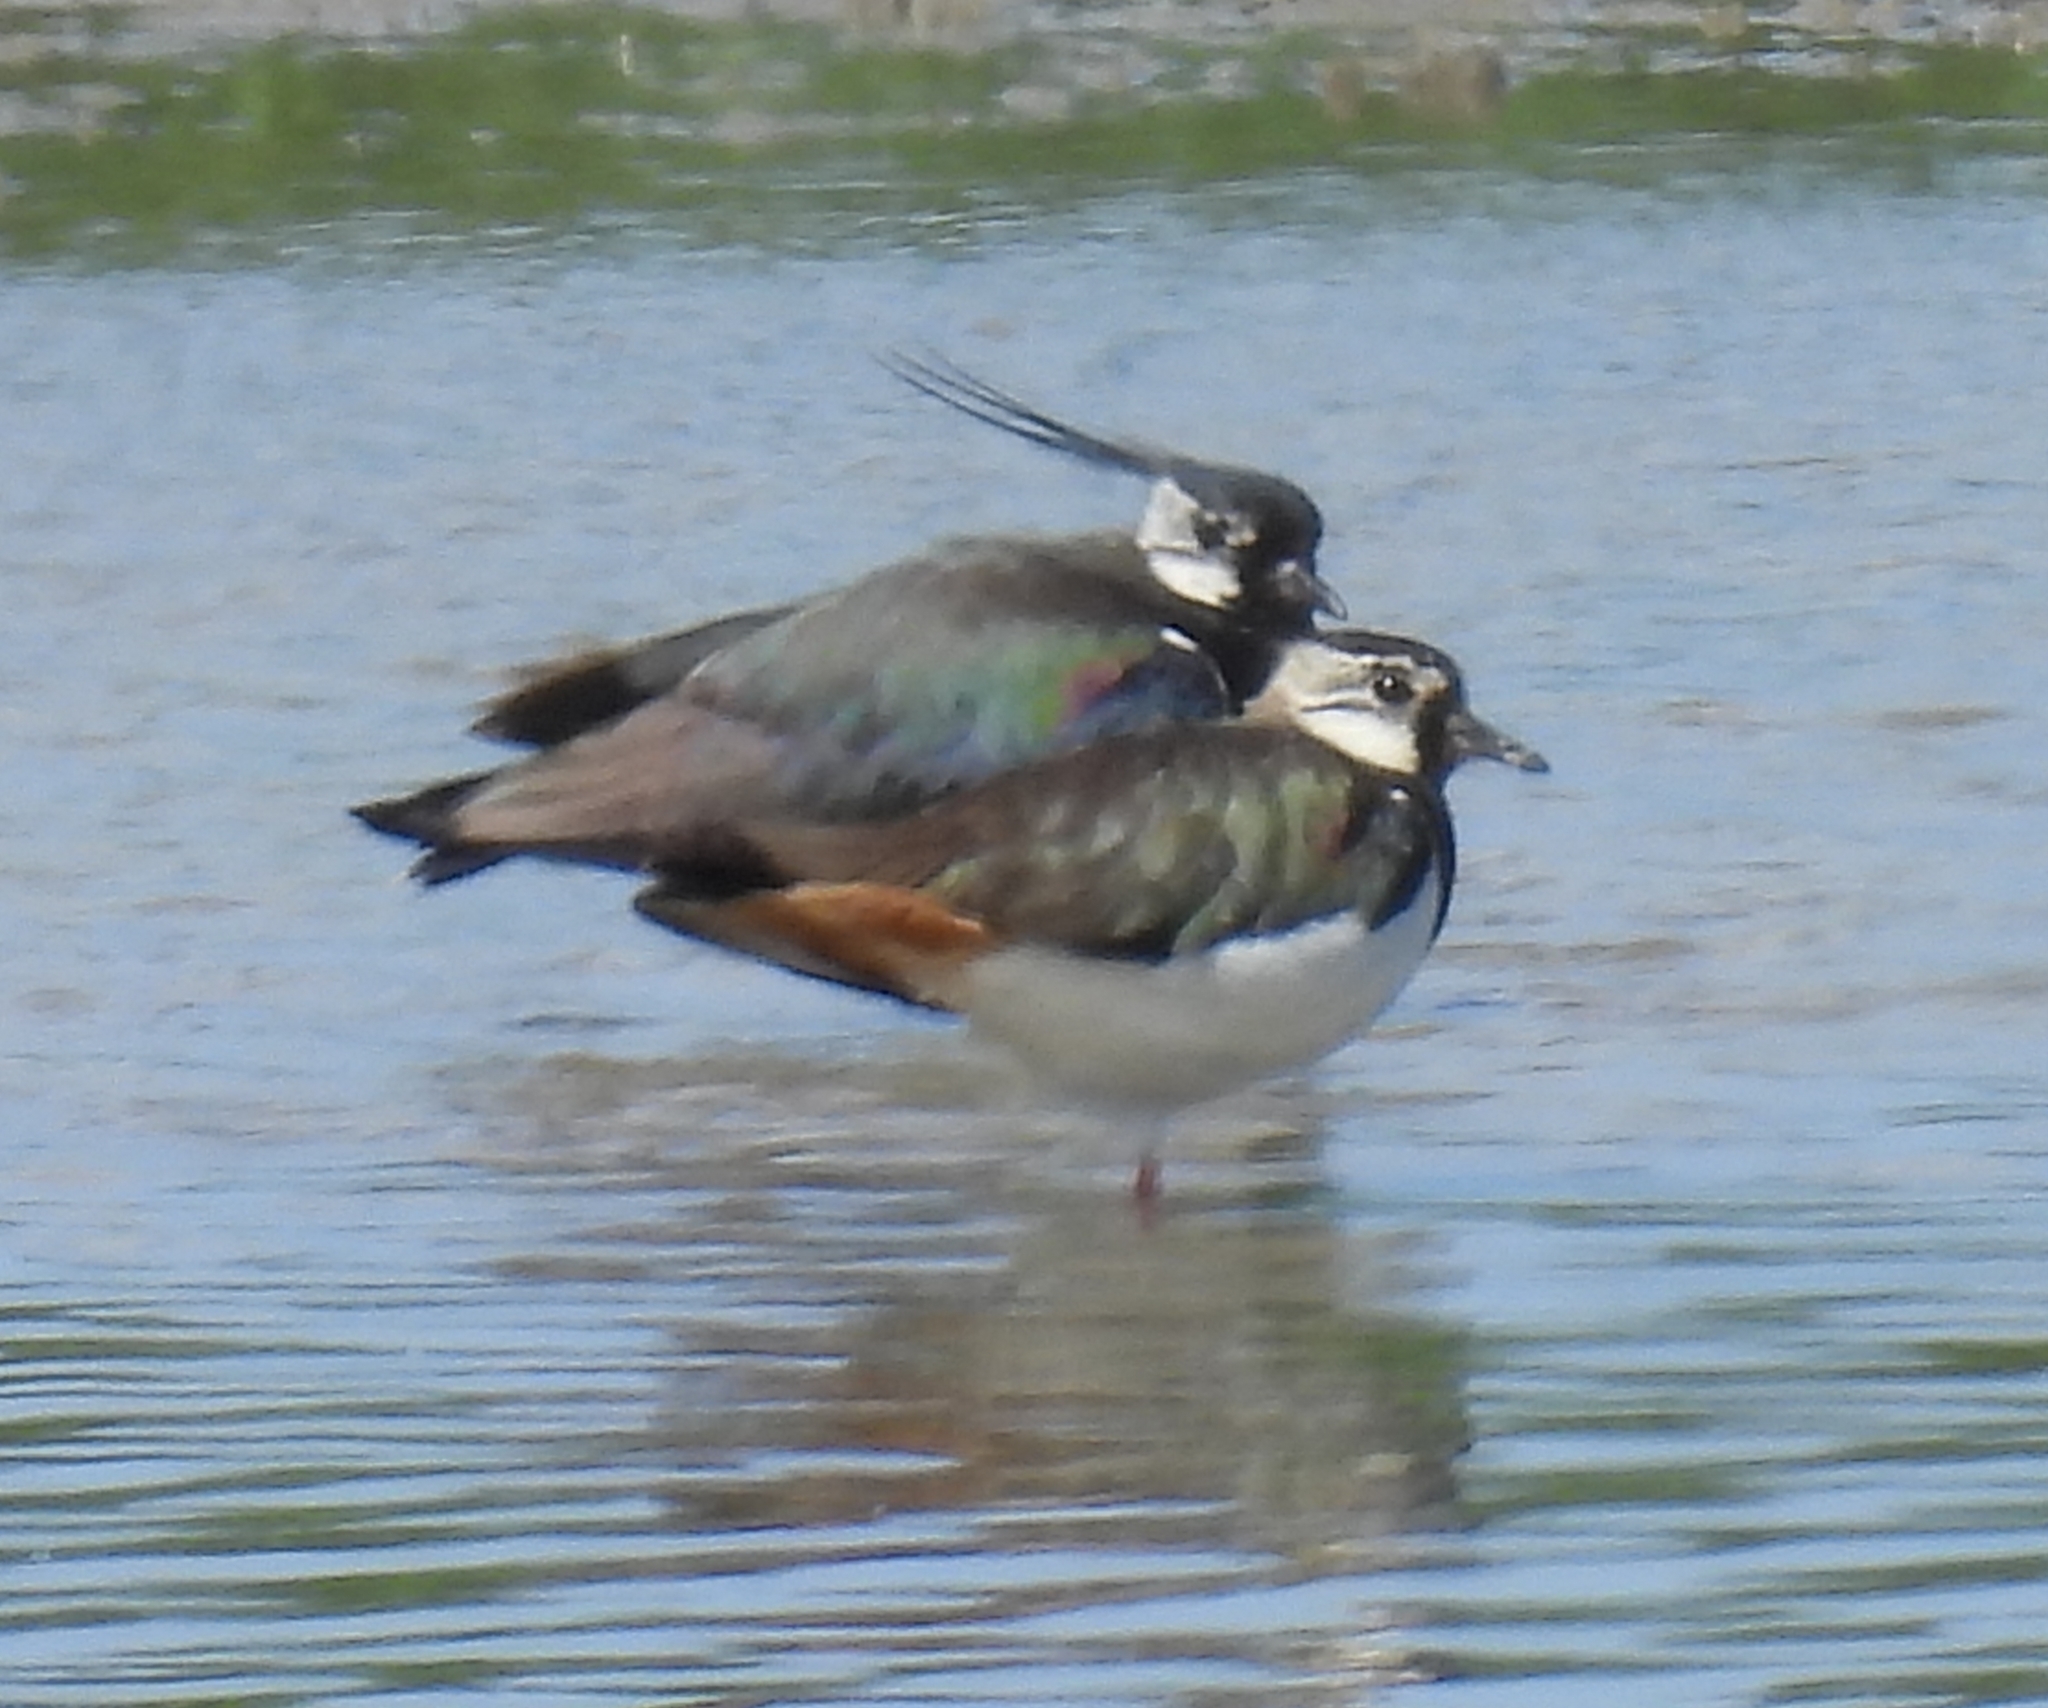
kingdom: Animalia
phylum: Chordata
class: Aves
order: Charadriiformes
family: Charadriidae
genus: Vanellus
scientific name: Vanellus vanellus
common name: Northern lapwing
